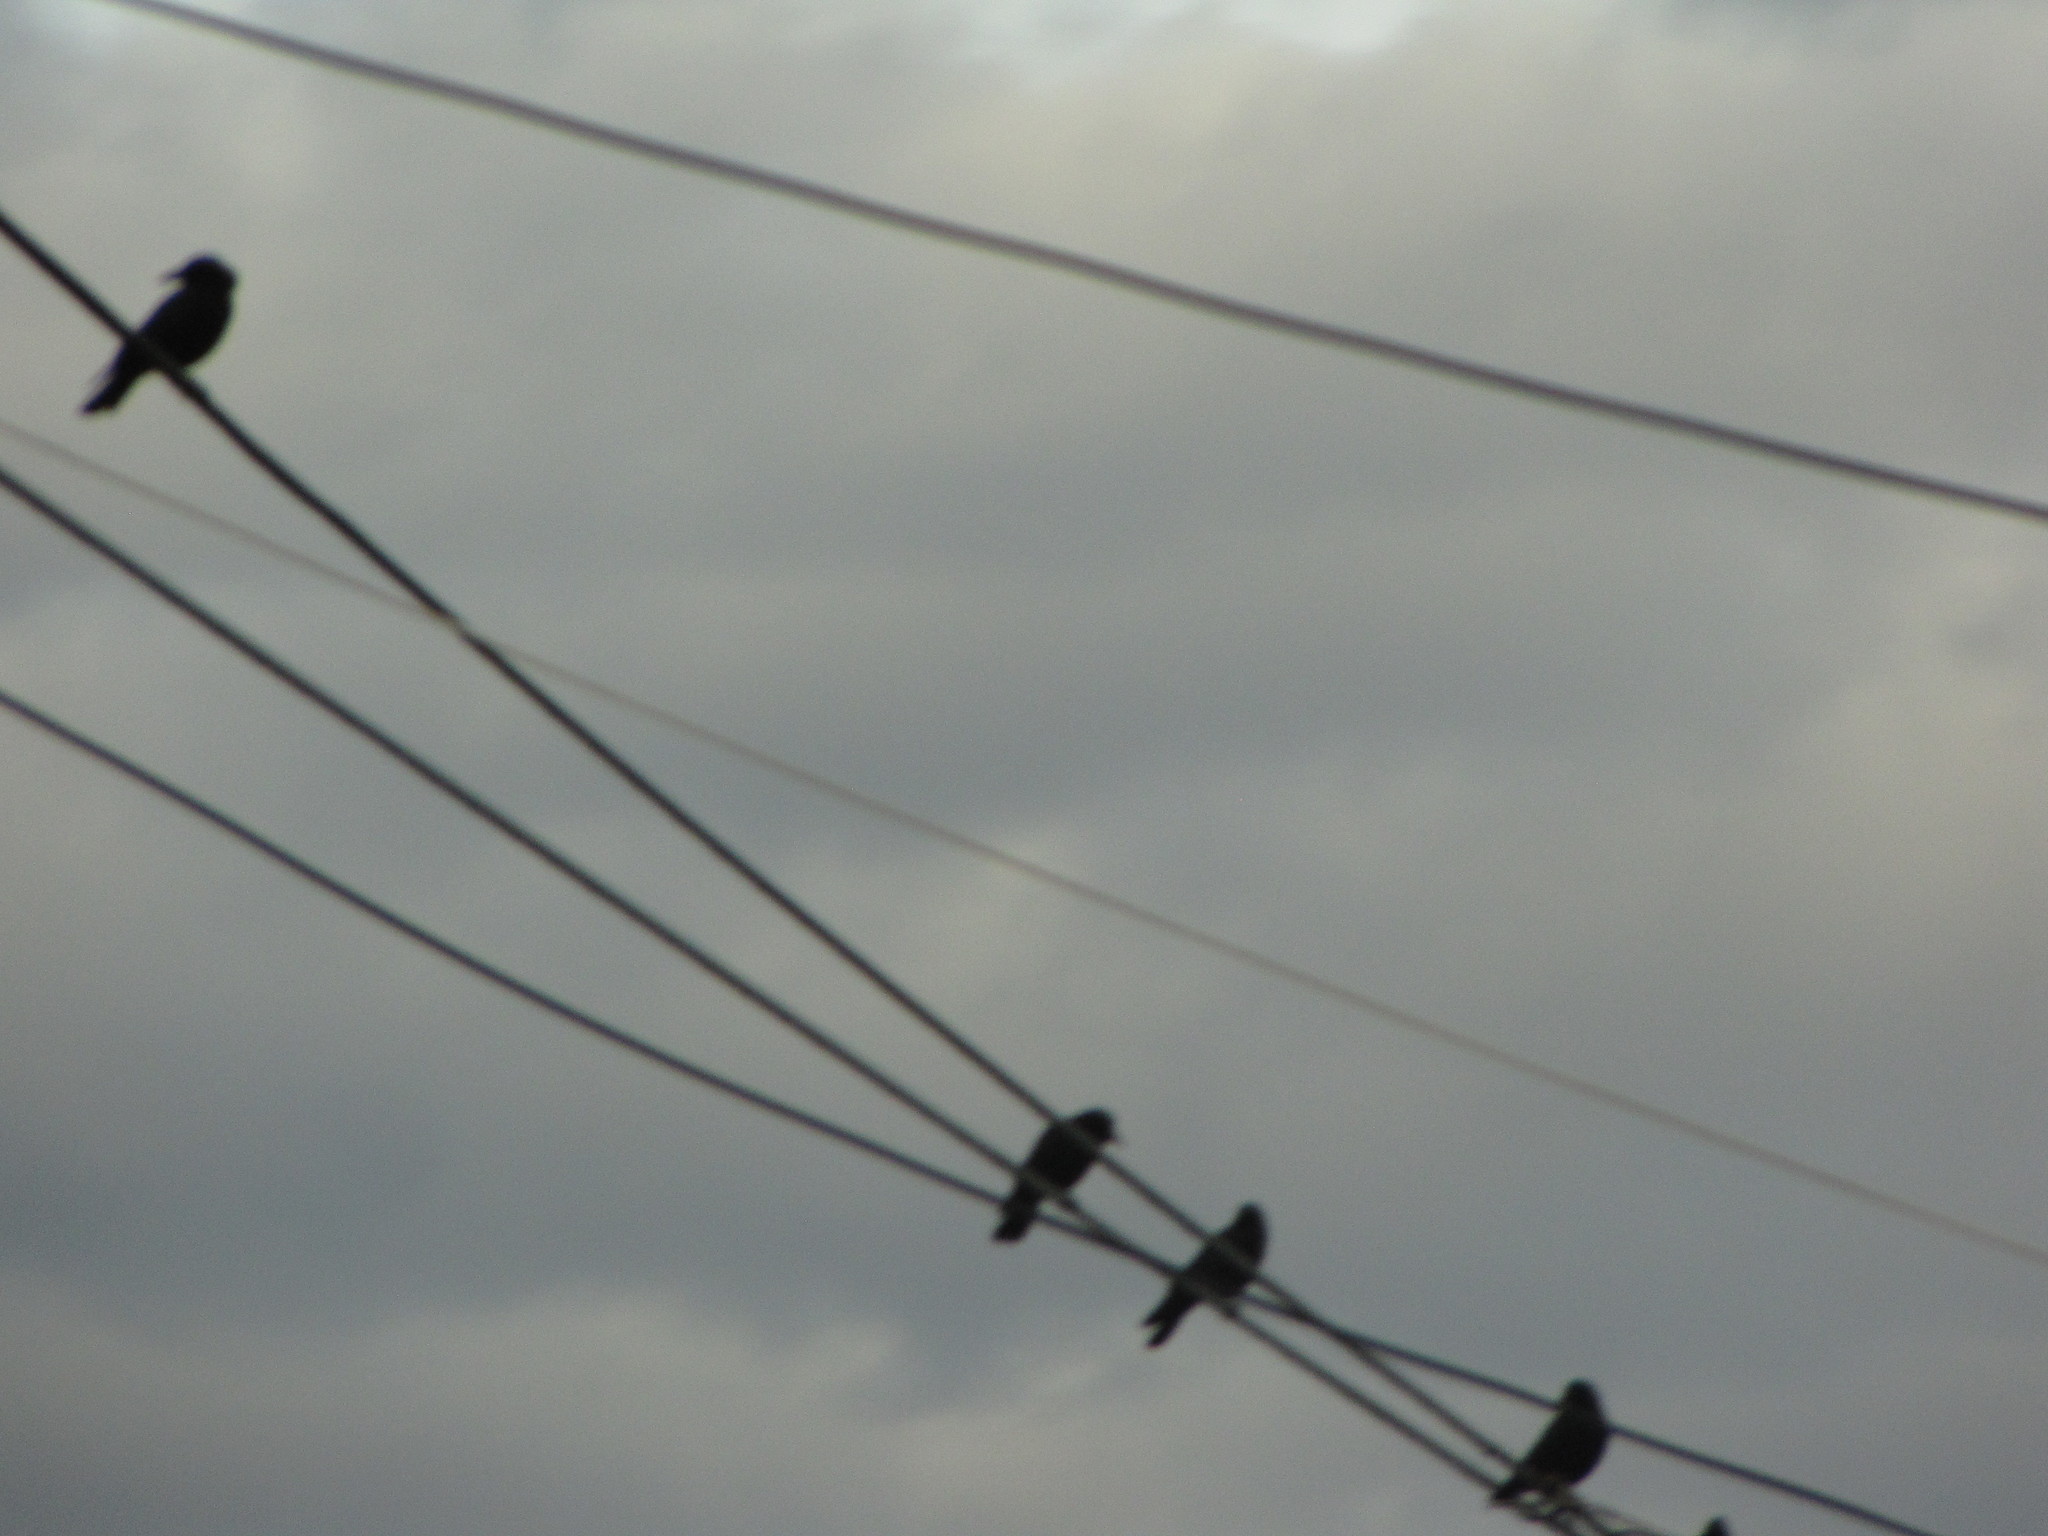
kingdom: Animalia
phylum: Chordata
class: Aves
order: Passeriformes
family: Corvidae
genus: Corvus
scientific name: Corvus brachyrhynchos
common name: American crow
